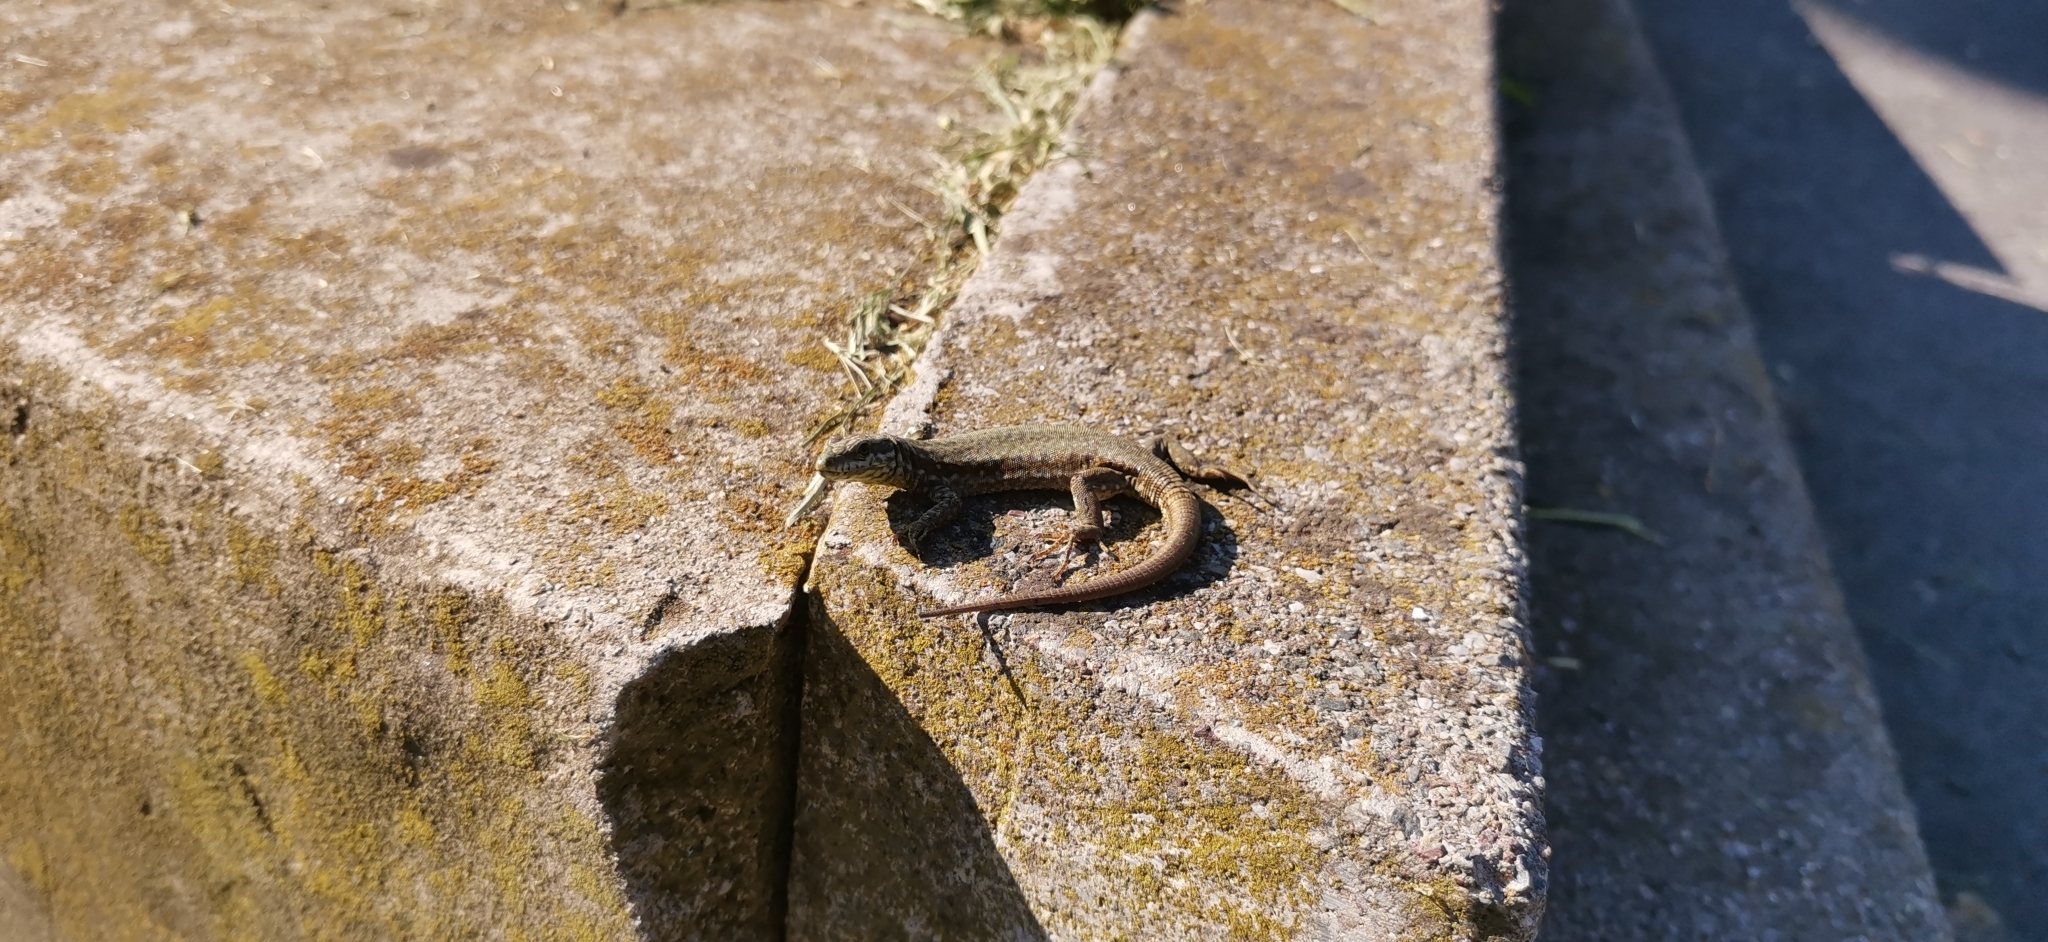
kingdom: Animalia
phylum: Chordata
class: Squamata
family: Lacertidae
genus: Podarcis
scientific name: Podarcis muralis
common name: Common wall lizard
